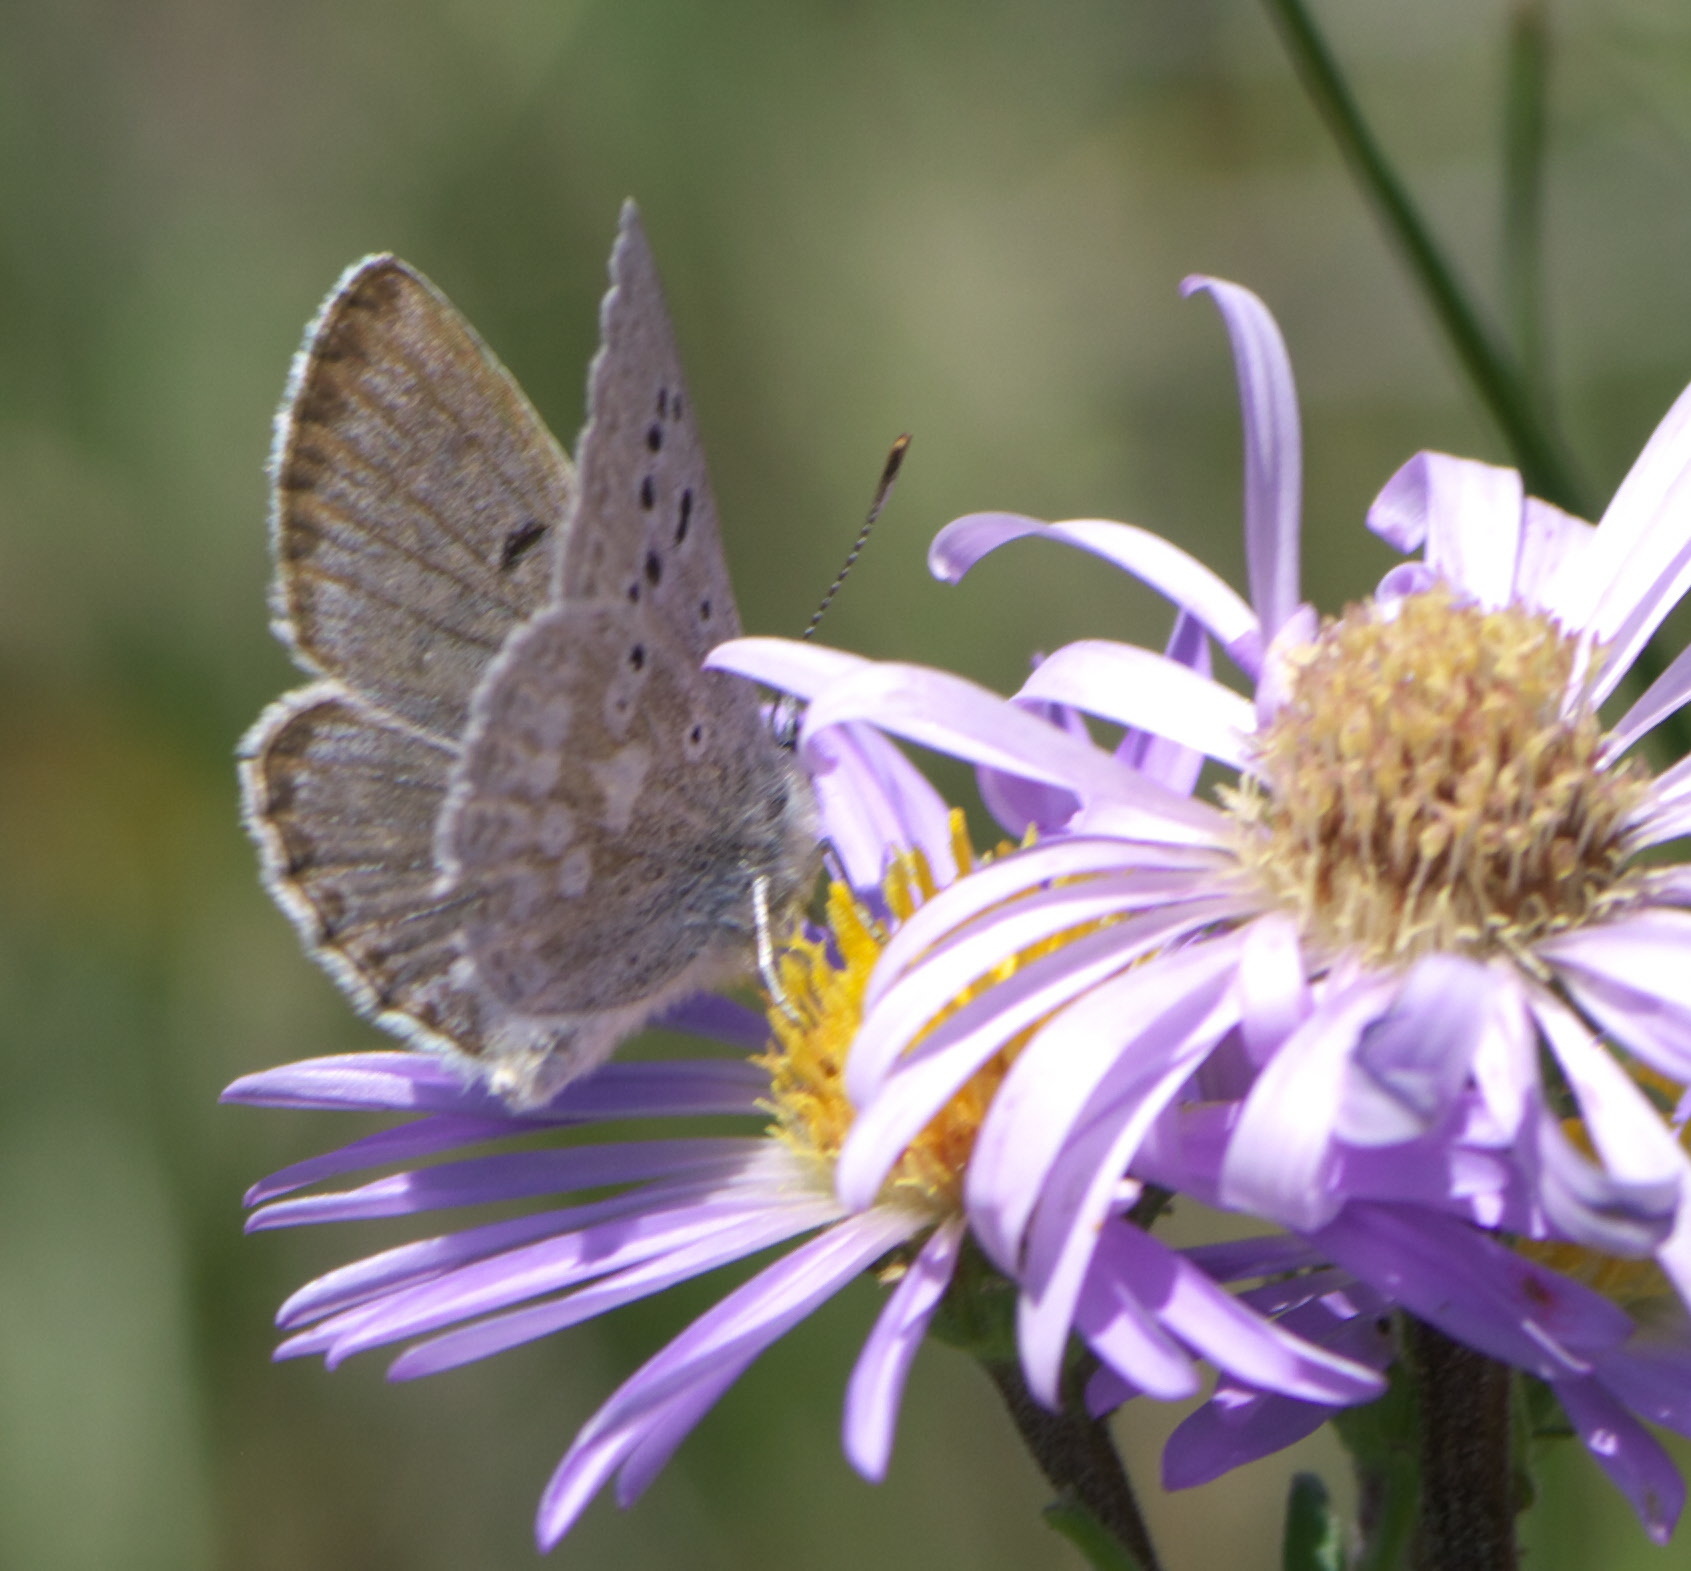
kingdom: Animalia
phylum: Arthropoda
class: Insecta
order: Lepidoptera
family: Lycaenidae
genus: Agriades
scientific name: Agriades glandon
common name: Glandon blue
